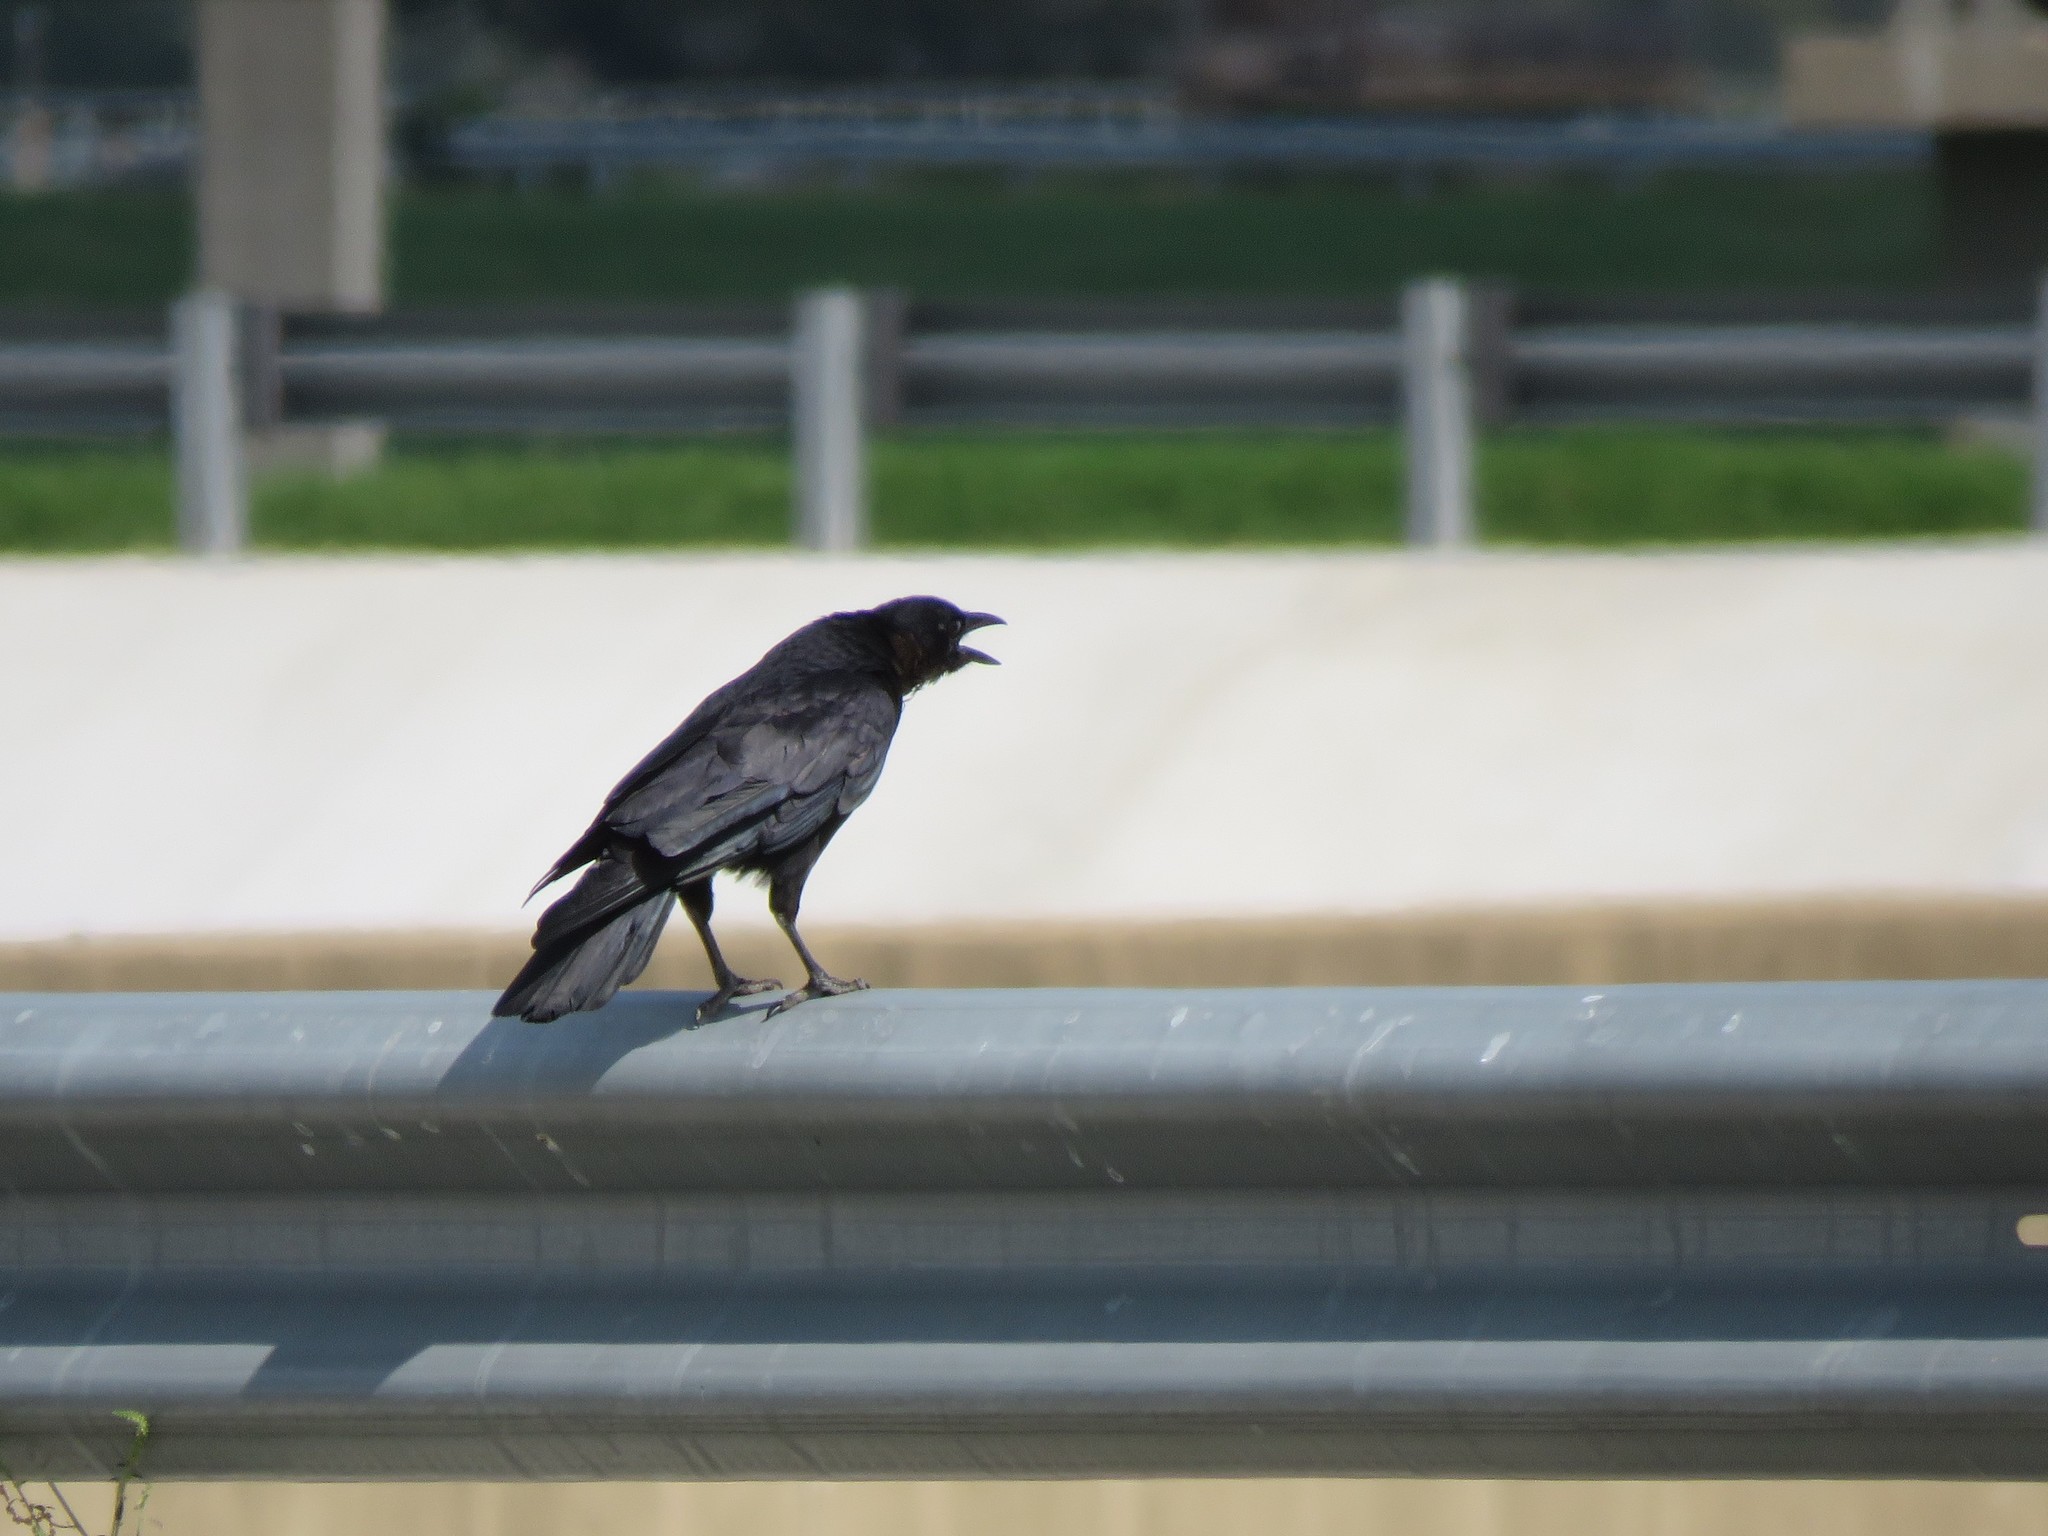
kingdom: Animalia
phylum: Chordata
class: Aves
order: Passeriformes
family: Corvidae
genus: Corvus
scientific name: Corvus brachyrhynchos
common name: American crow
